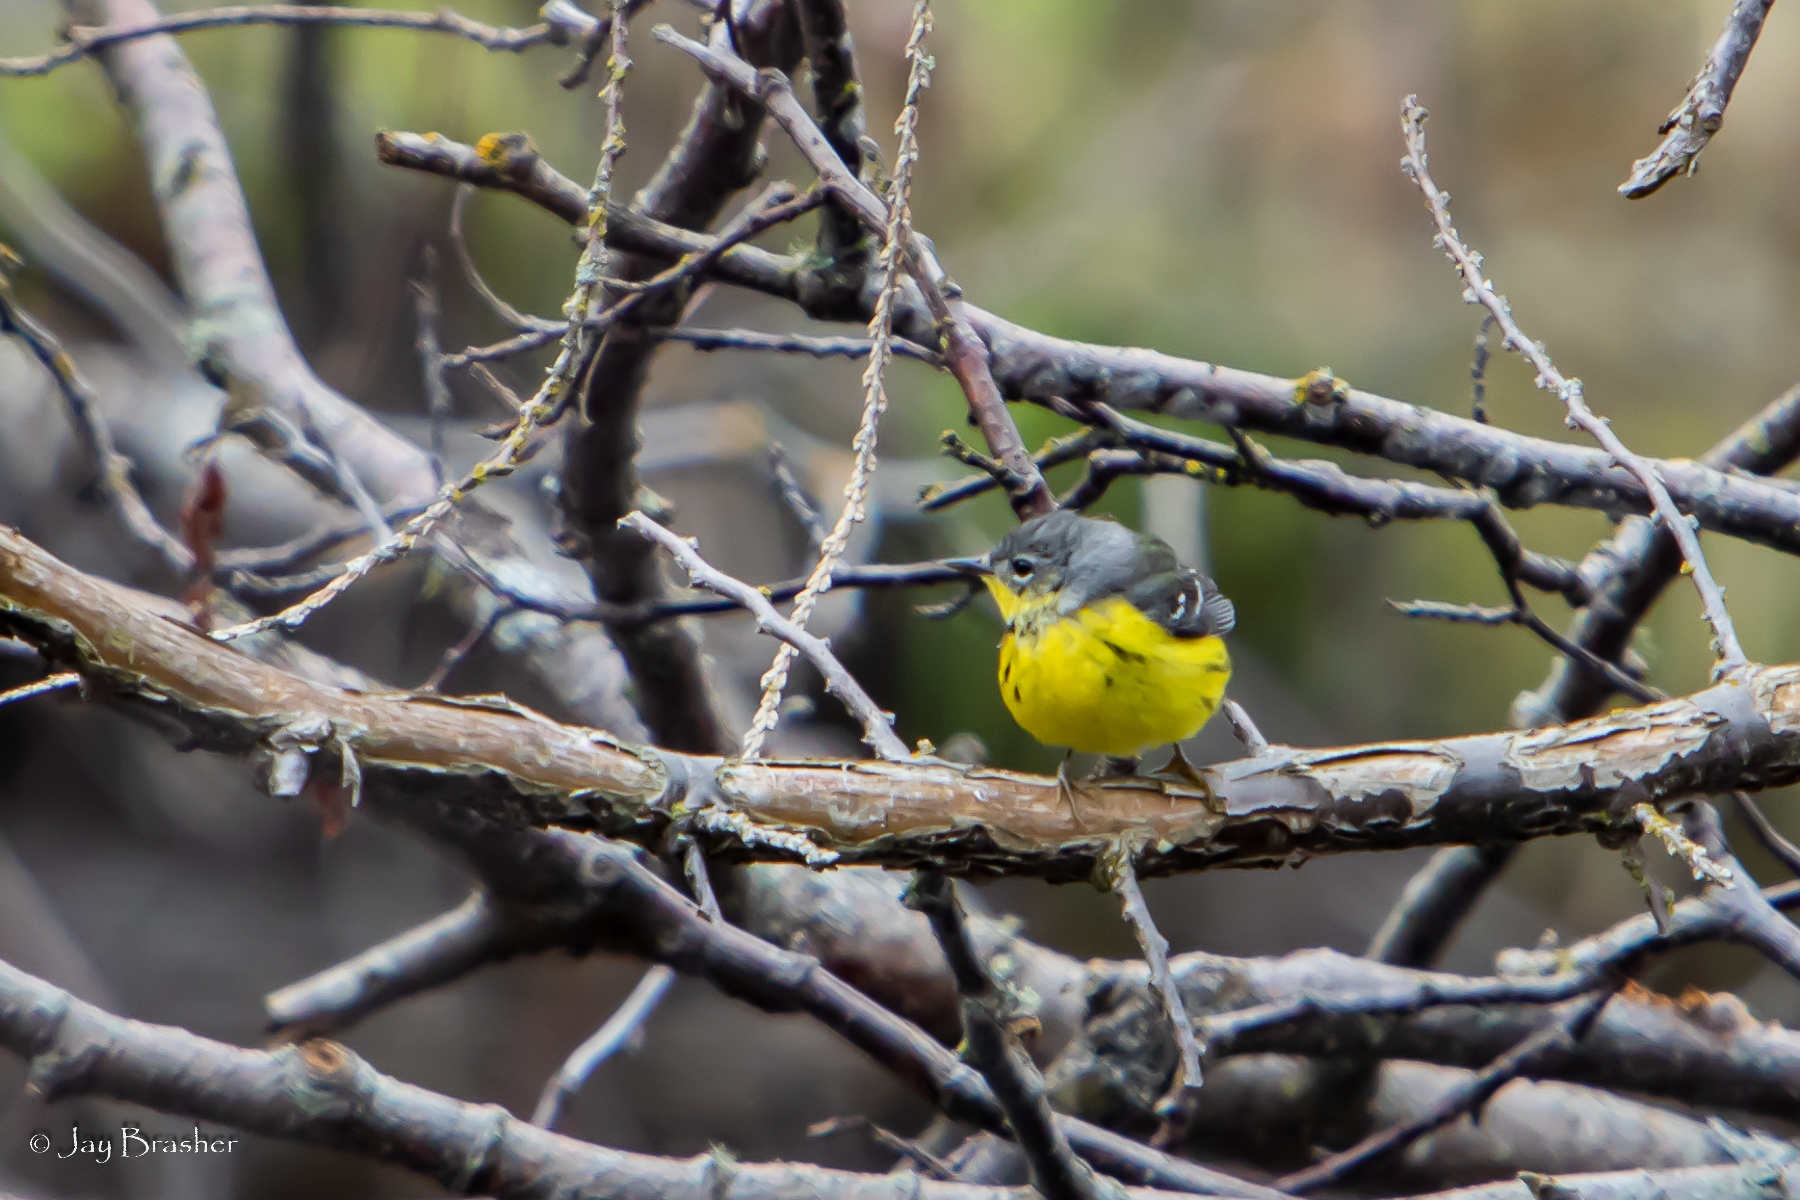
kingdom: Animalia
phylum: Chordata
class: Aves
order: Passeriformes
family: Parulidae
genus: Setophaga
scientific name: Setophaga magnolia
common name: Magnolia warbler
